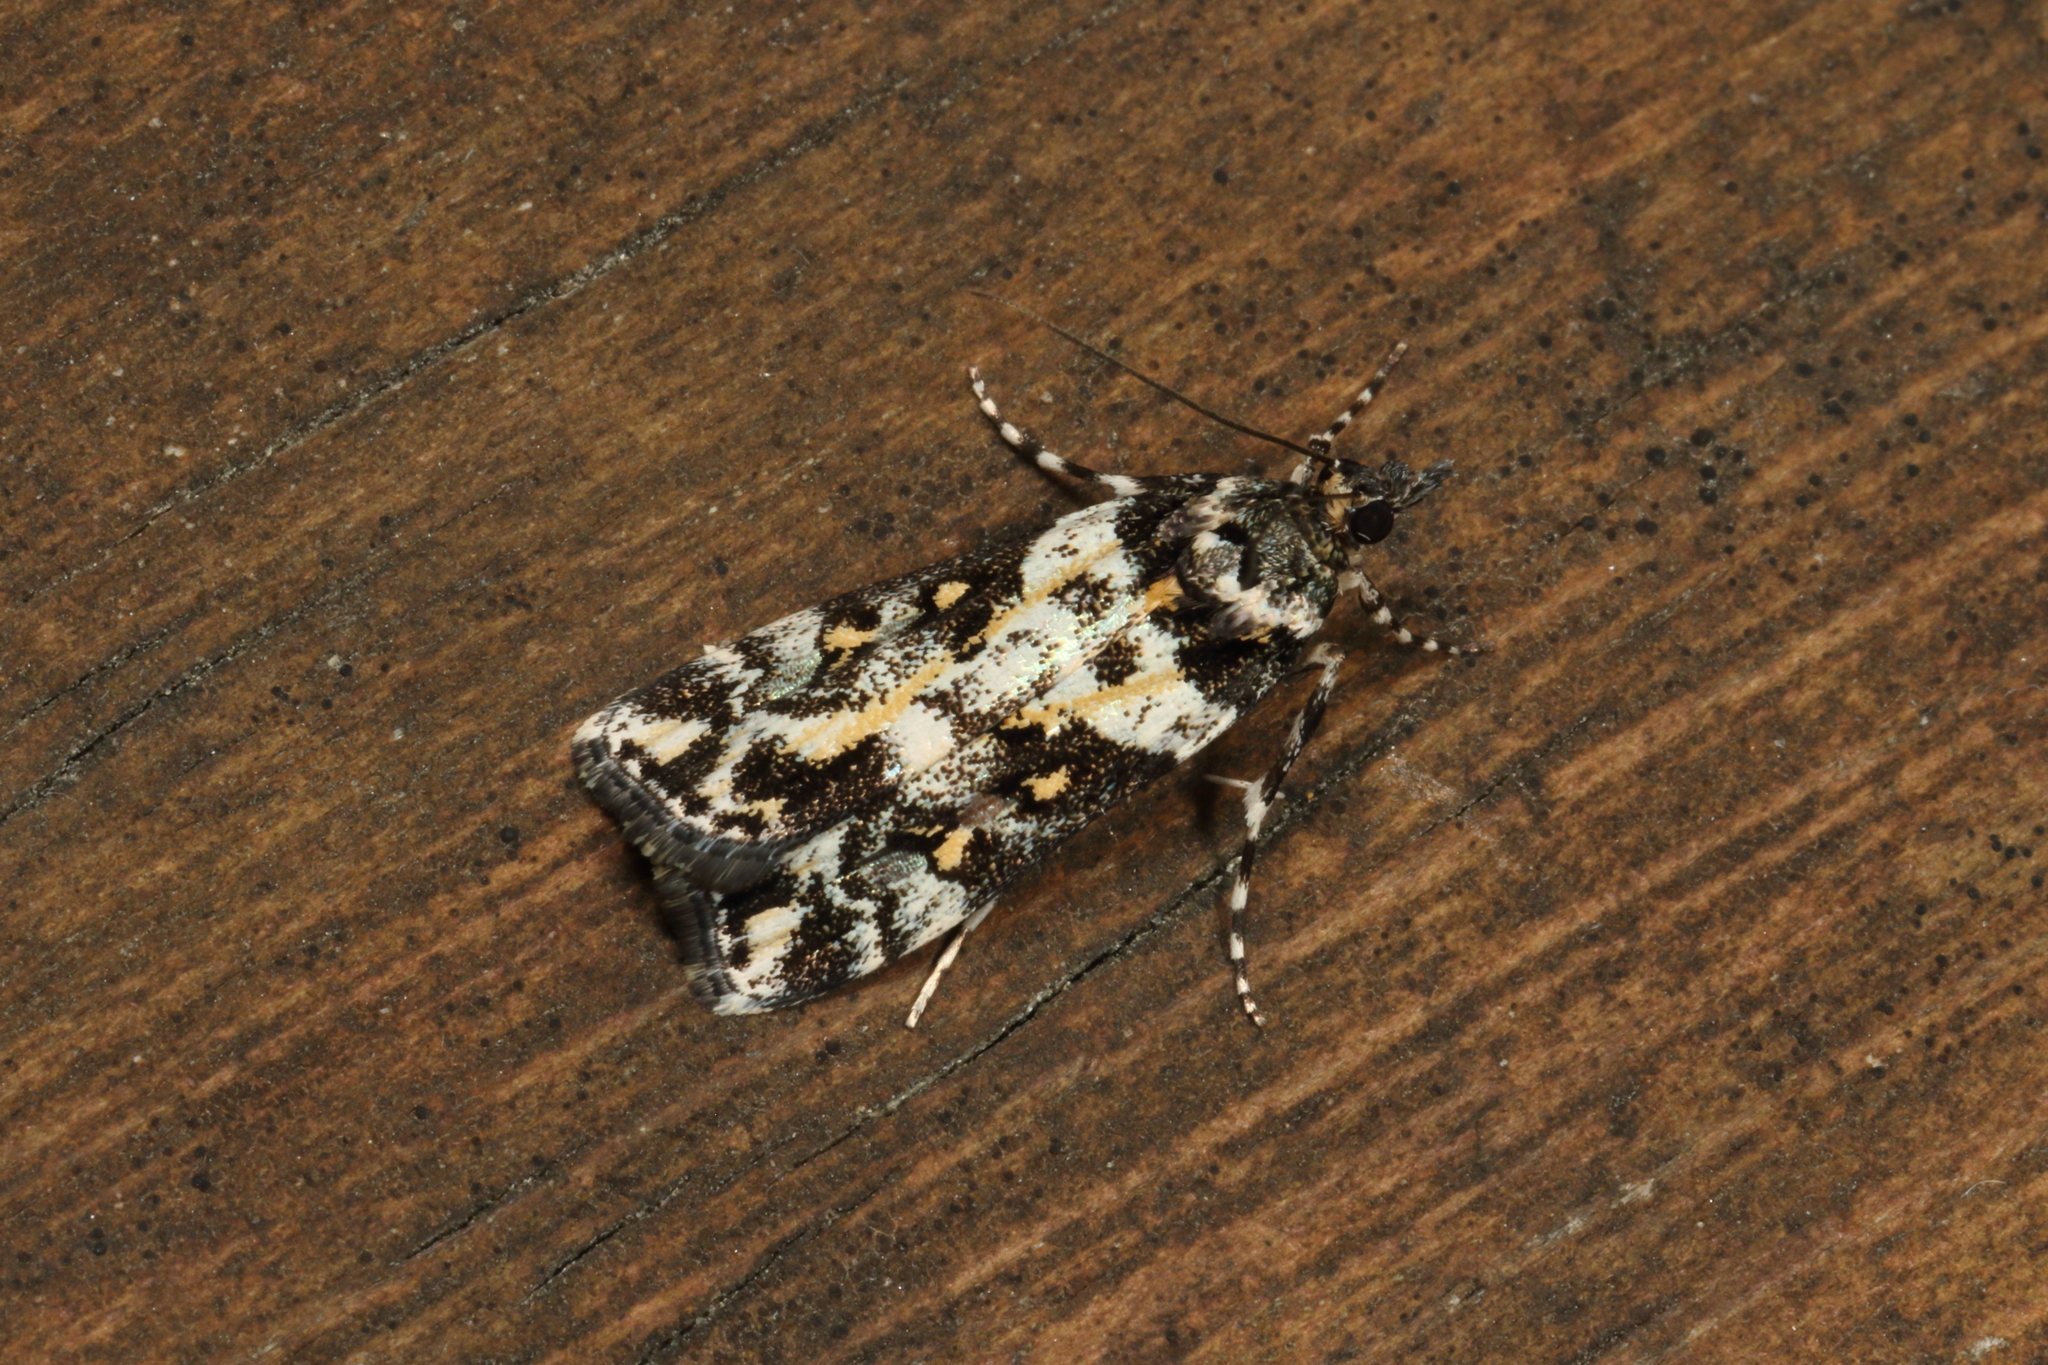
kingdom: Animalia
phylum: Arthropoda
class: Insecta
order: Lepidoptera
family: Crambidae
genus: Eudonia
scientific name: Eudonia diphtheralis
